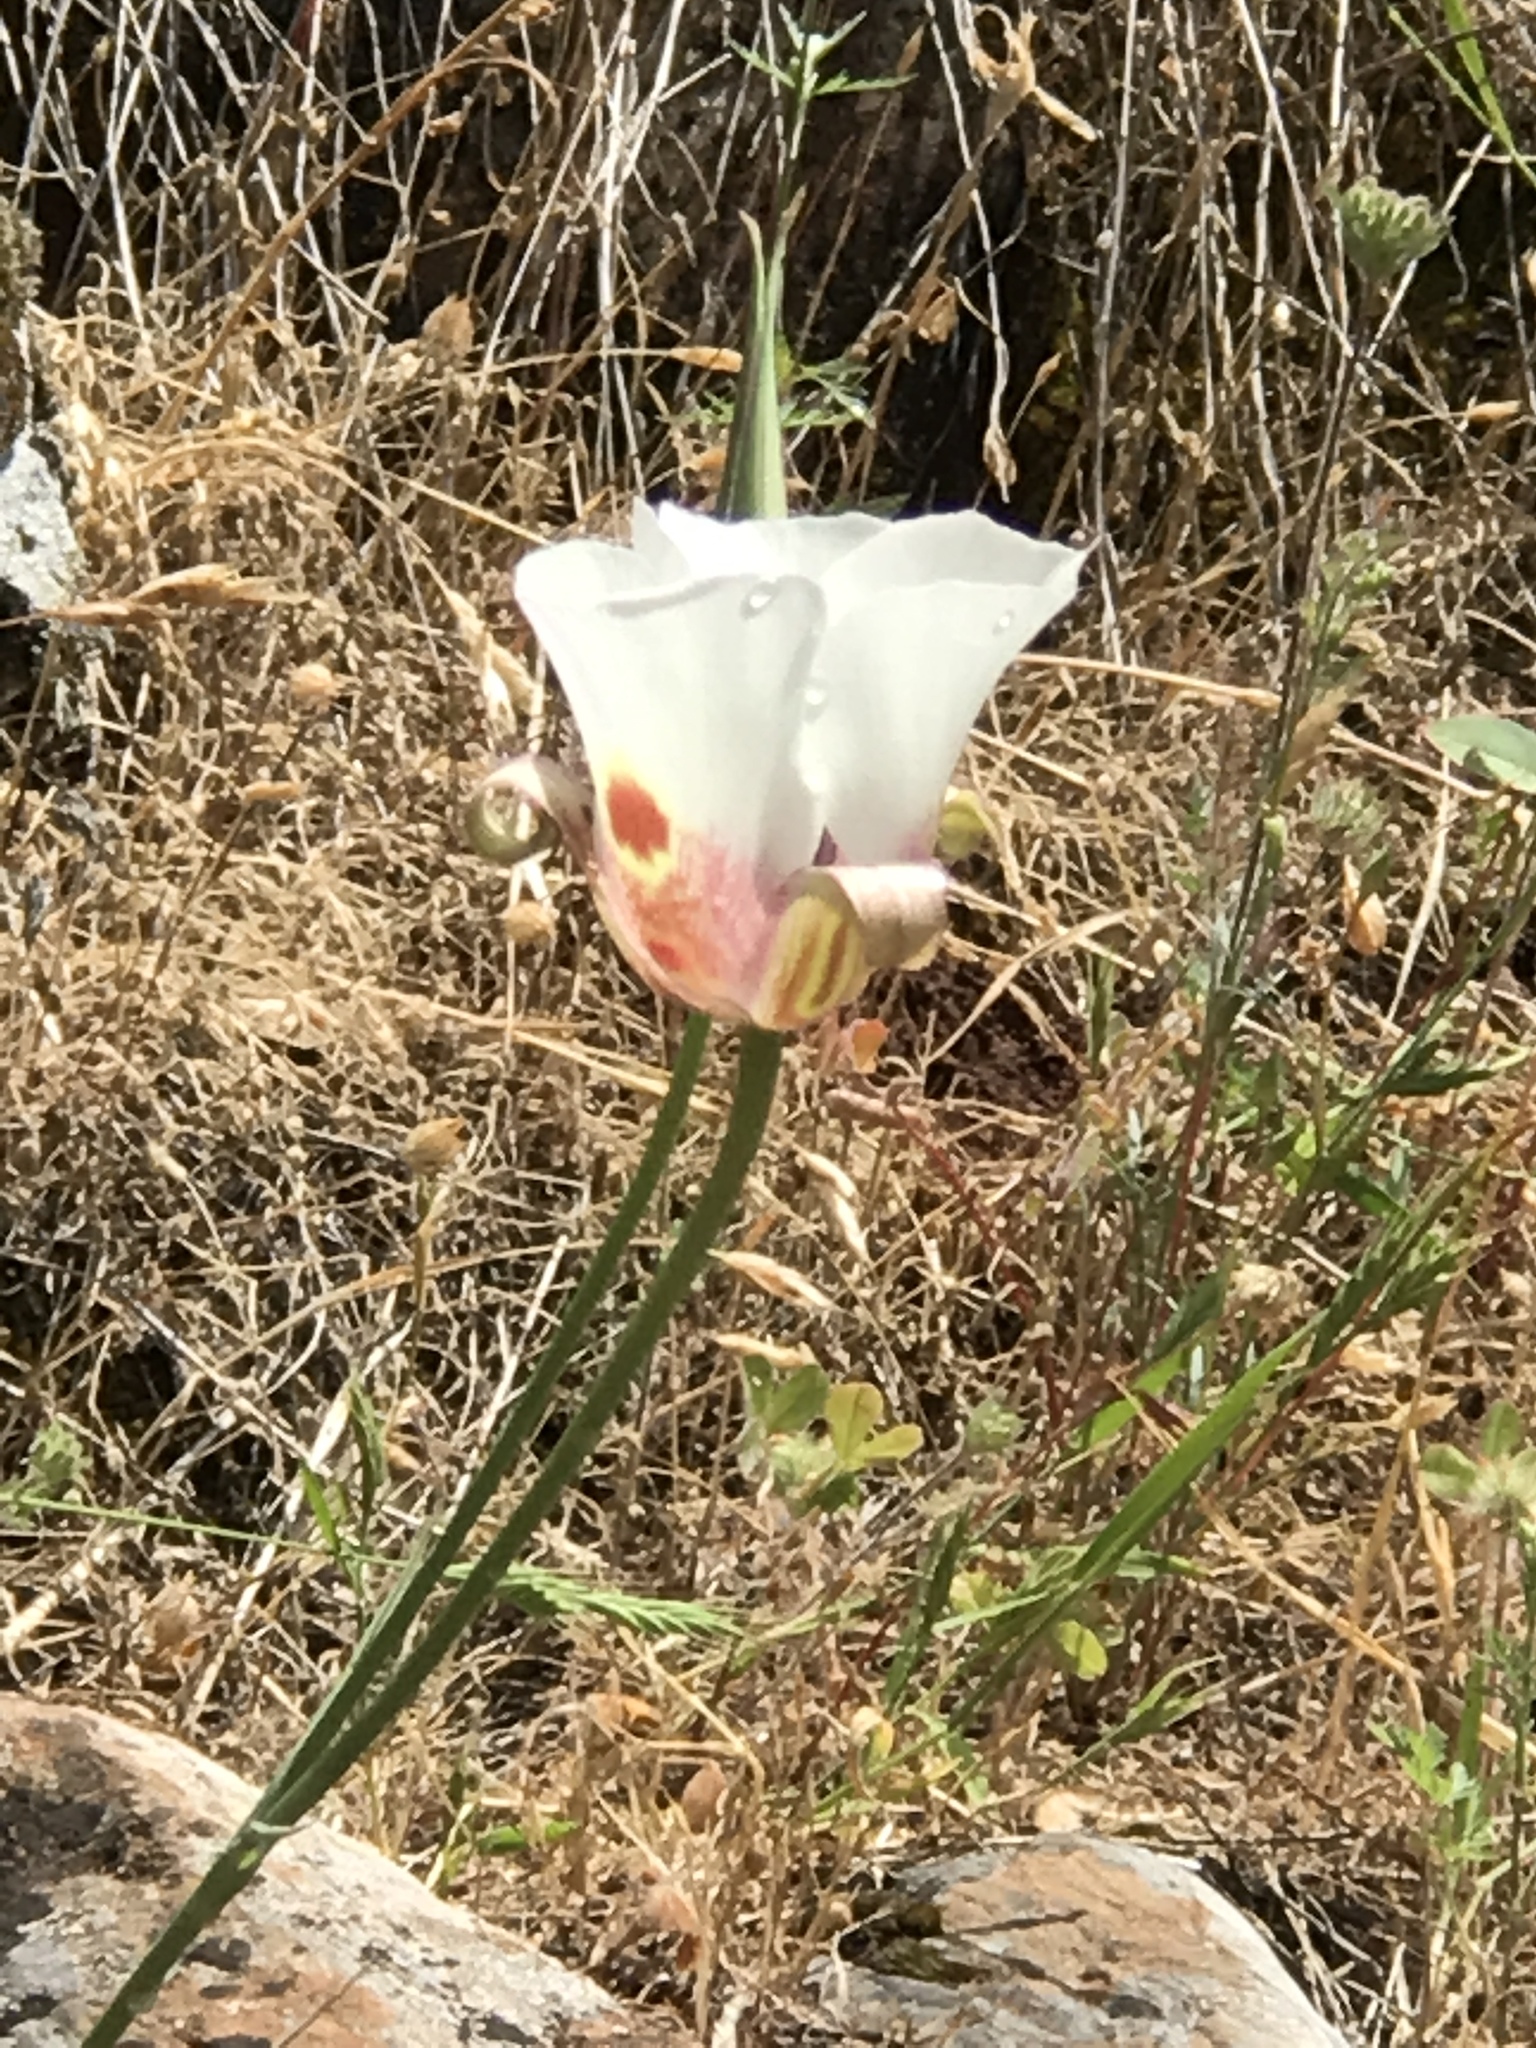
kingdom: Plantae
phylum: Tracheophyta
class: Liliopsida
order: Liliales
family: Liliaceae
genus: Calochortus
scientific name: Calochortus venustus
